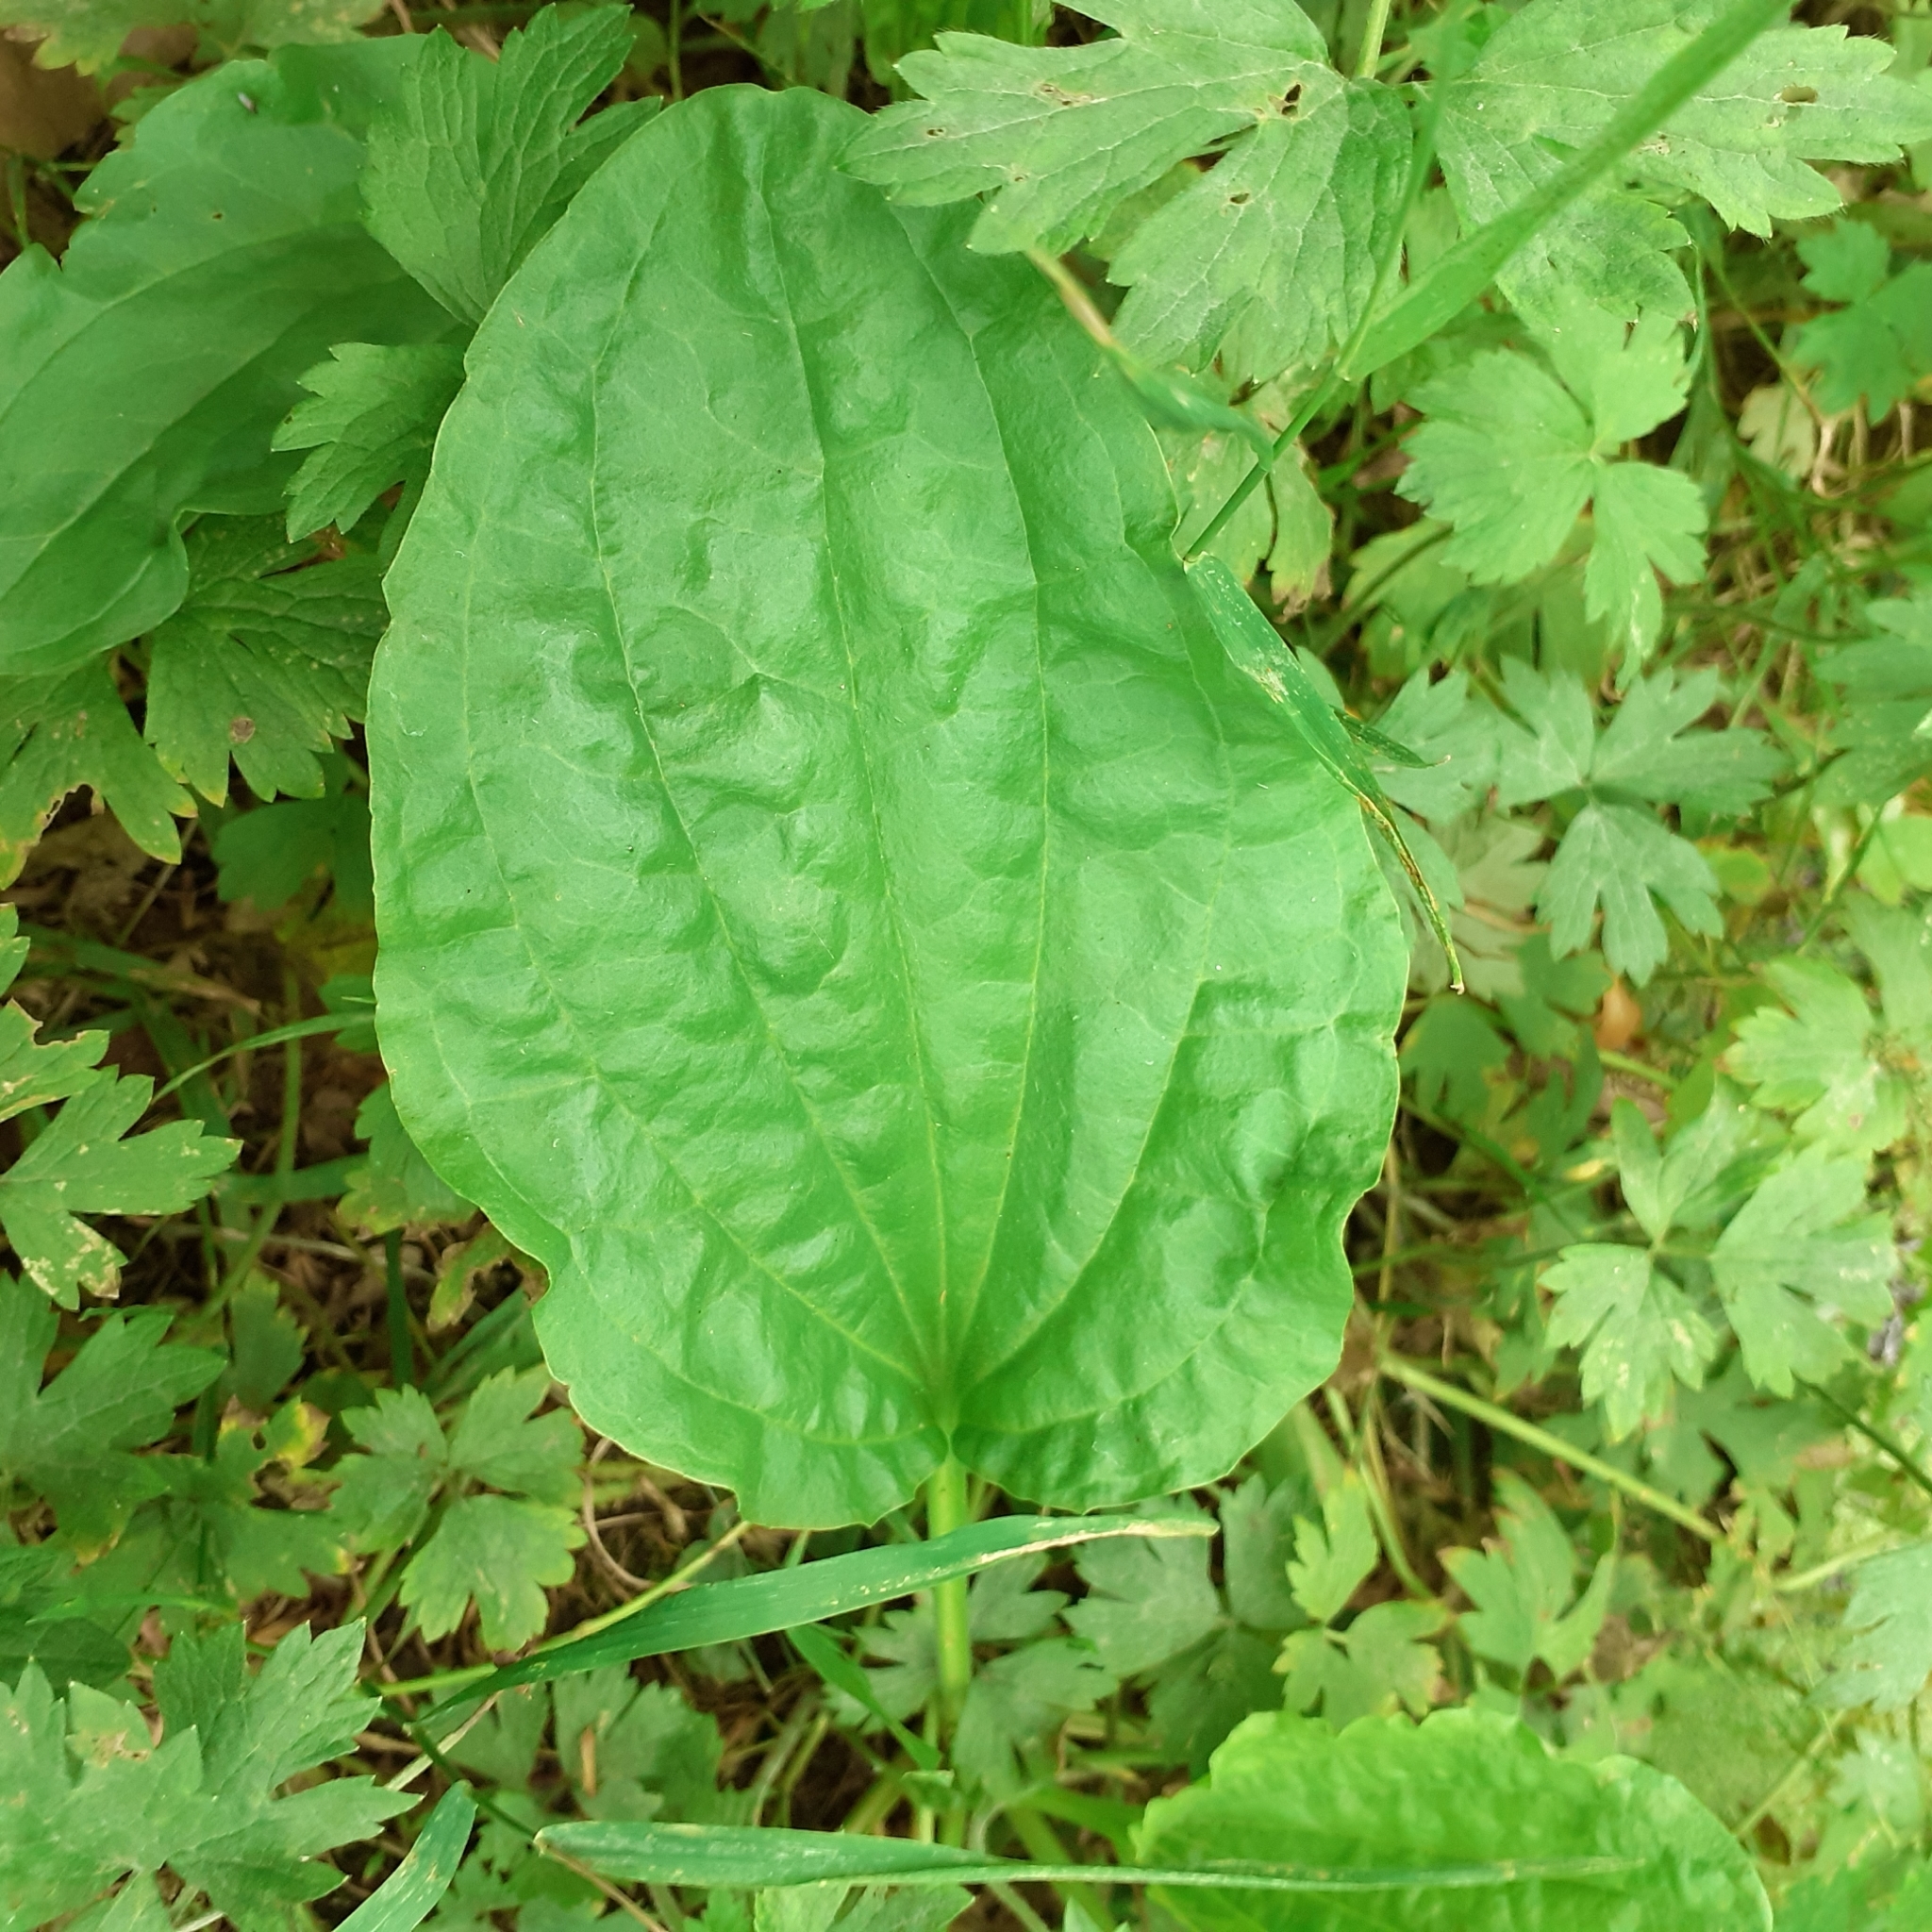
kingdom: Plantae
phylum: Tracheophyta
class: Magnoliopsida
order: Lamiales
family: Plantaginaceae
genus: Plantago
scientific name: Plantago major
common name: Common plantain
